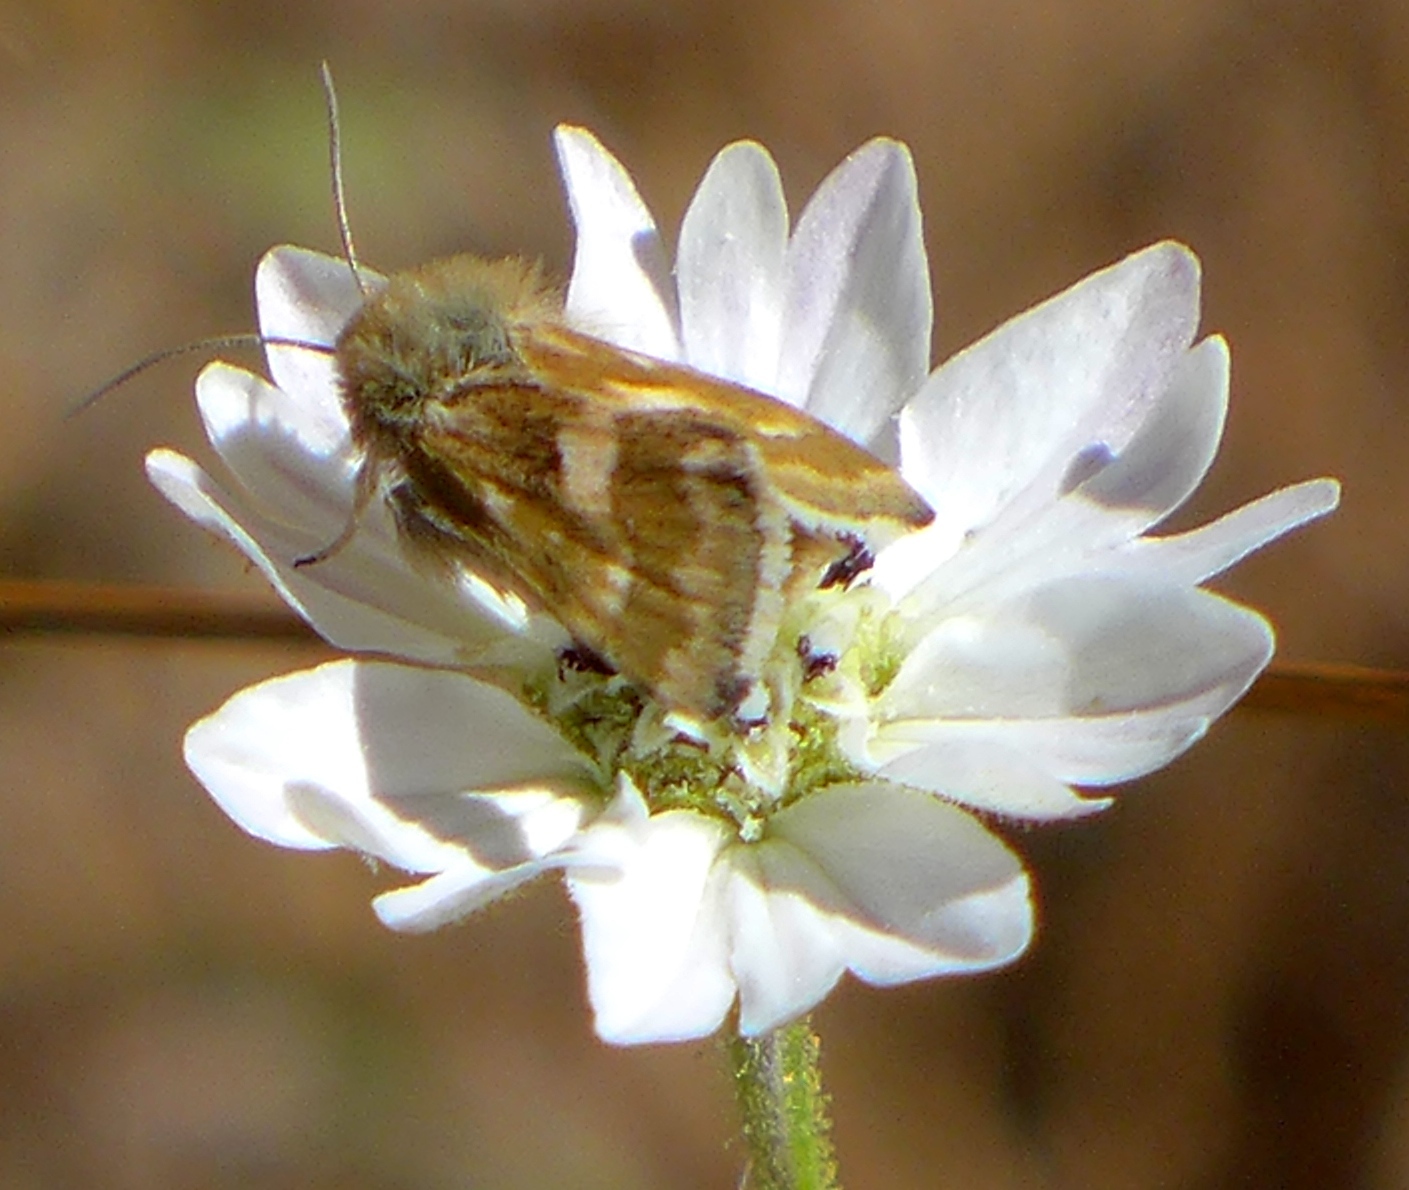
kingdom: Animalia
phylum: Arthropoda
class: Insecta
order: Lepidoptera
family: Noctuidae
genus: Heliothodes
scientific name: Heliothodes diminutiva
